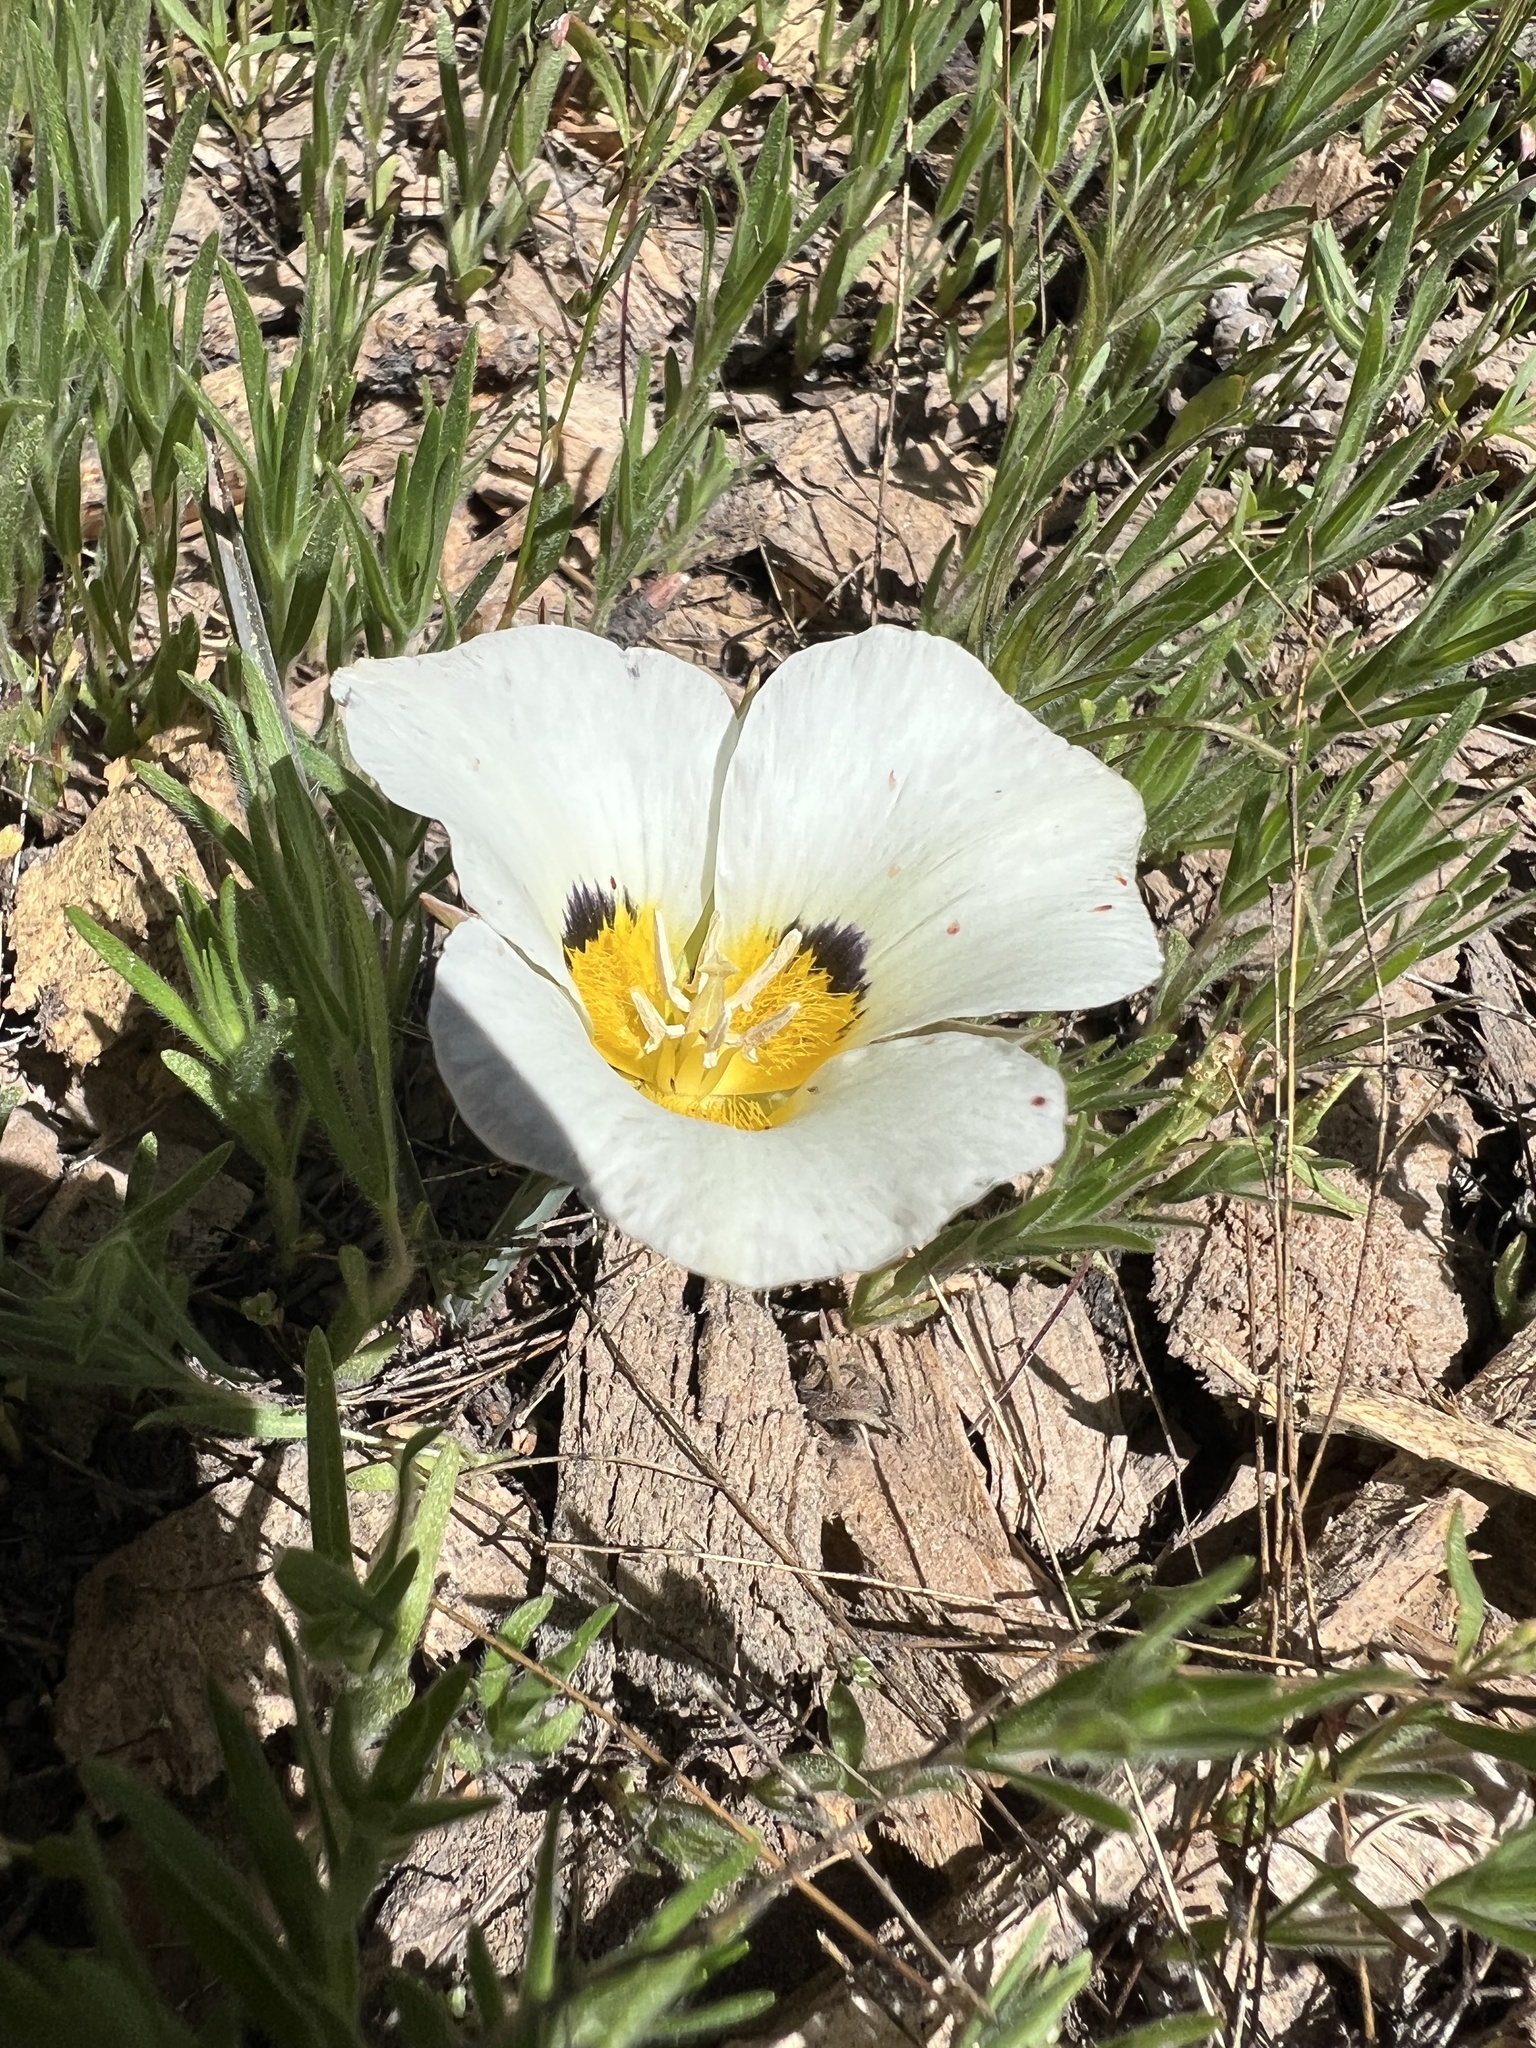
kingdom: Plantae
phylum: Tracheophyta
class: Liliopsida
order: Liliales
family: Liliaceae
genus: Calochortus
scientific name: Calochortus leichtlinii
